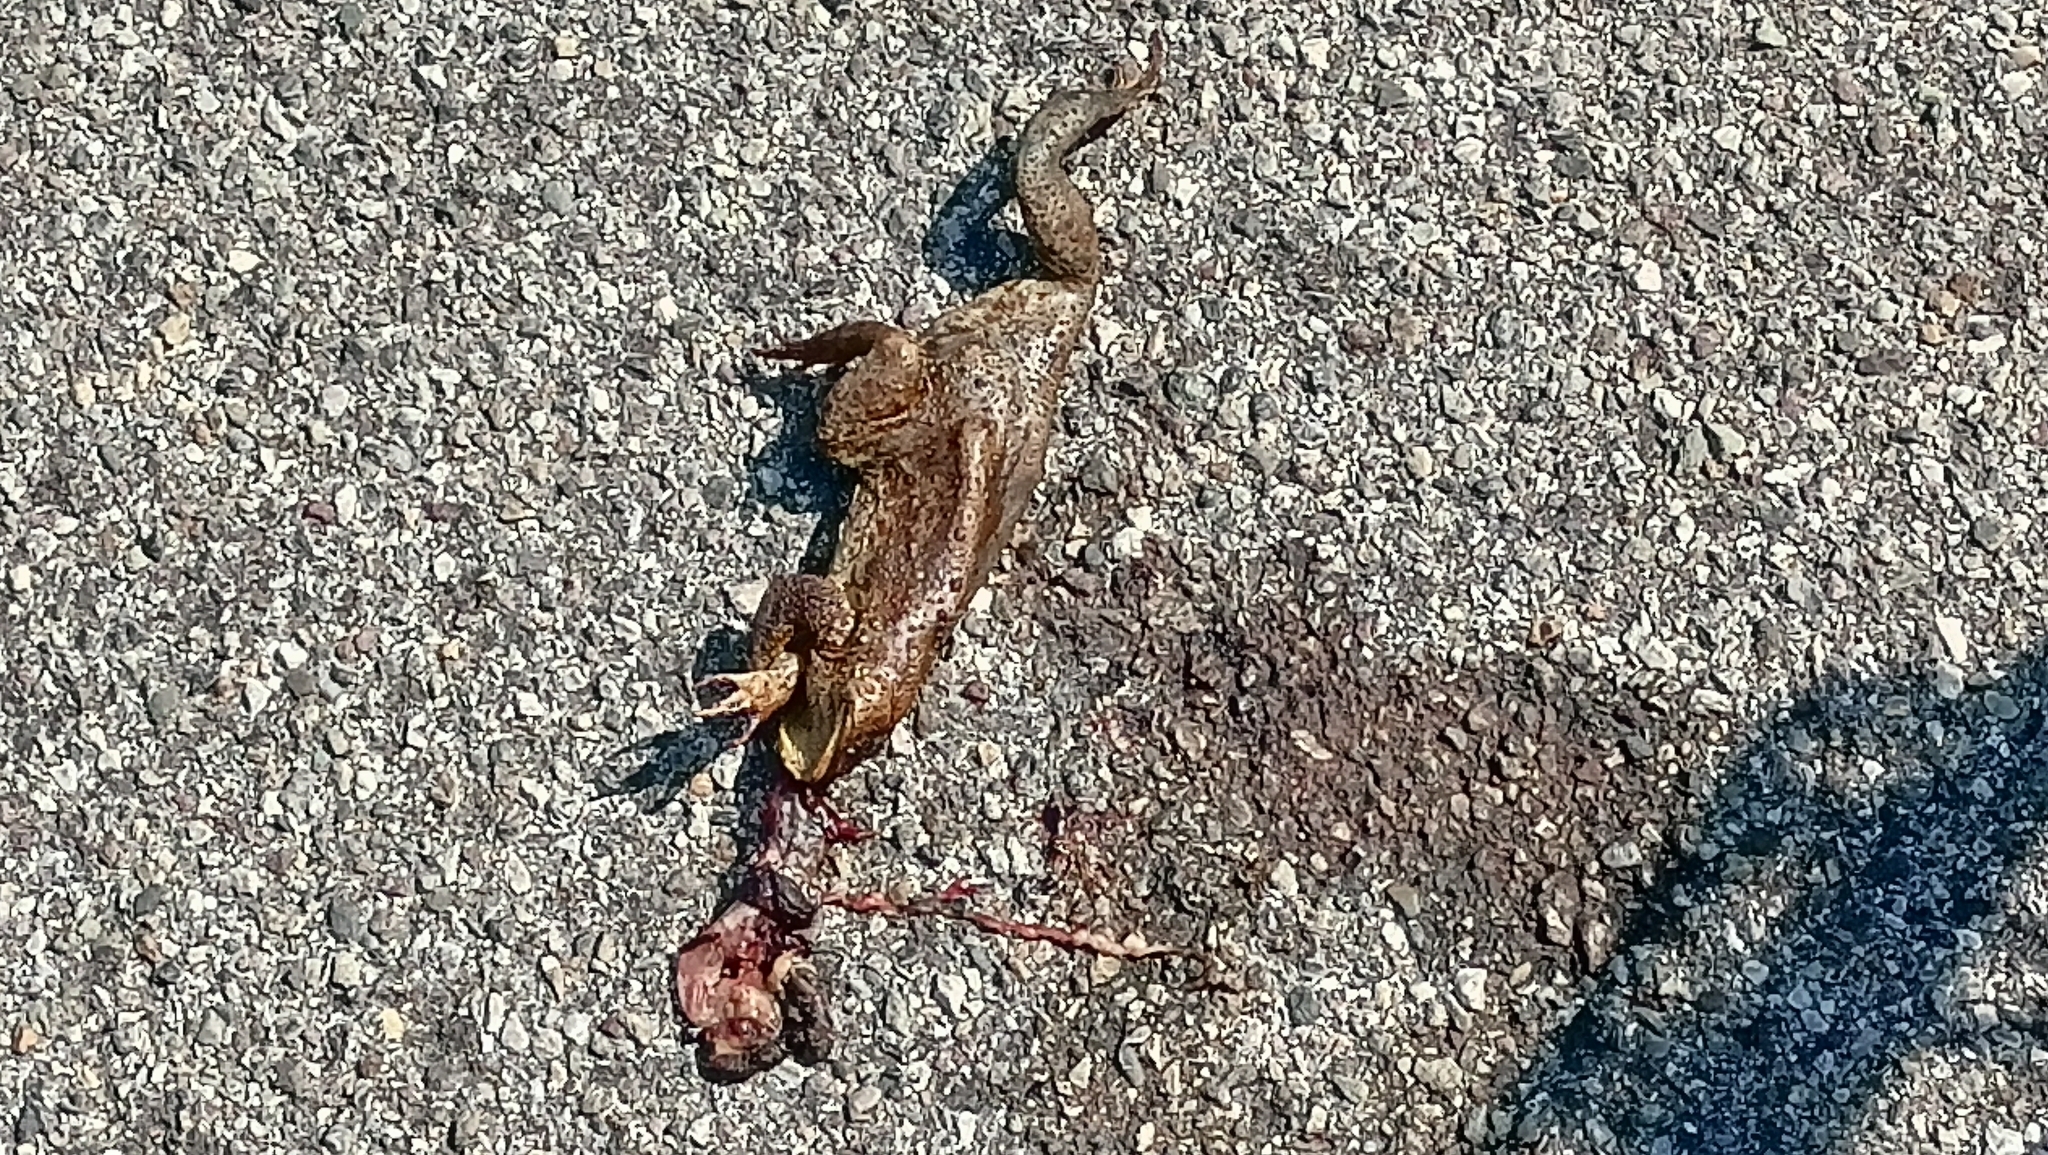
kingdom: Animalia
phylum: Chordata
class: Amphibia
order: Anura
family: Bufonidae
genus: Bufo
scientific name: Bufo bufo
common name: Common toad
